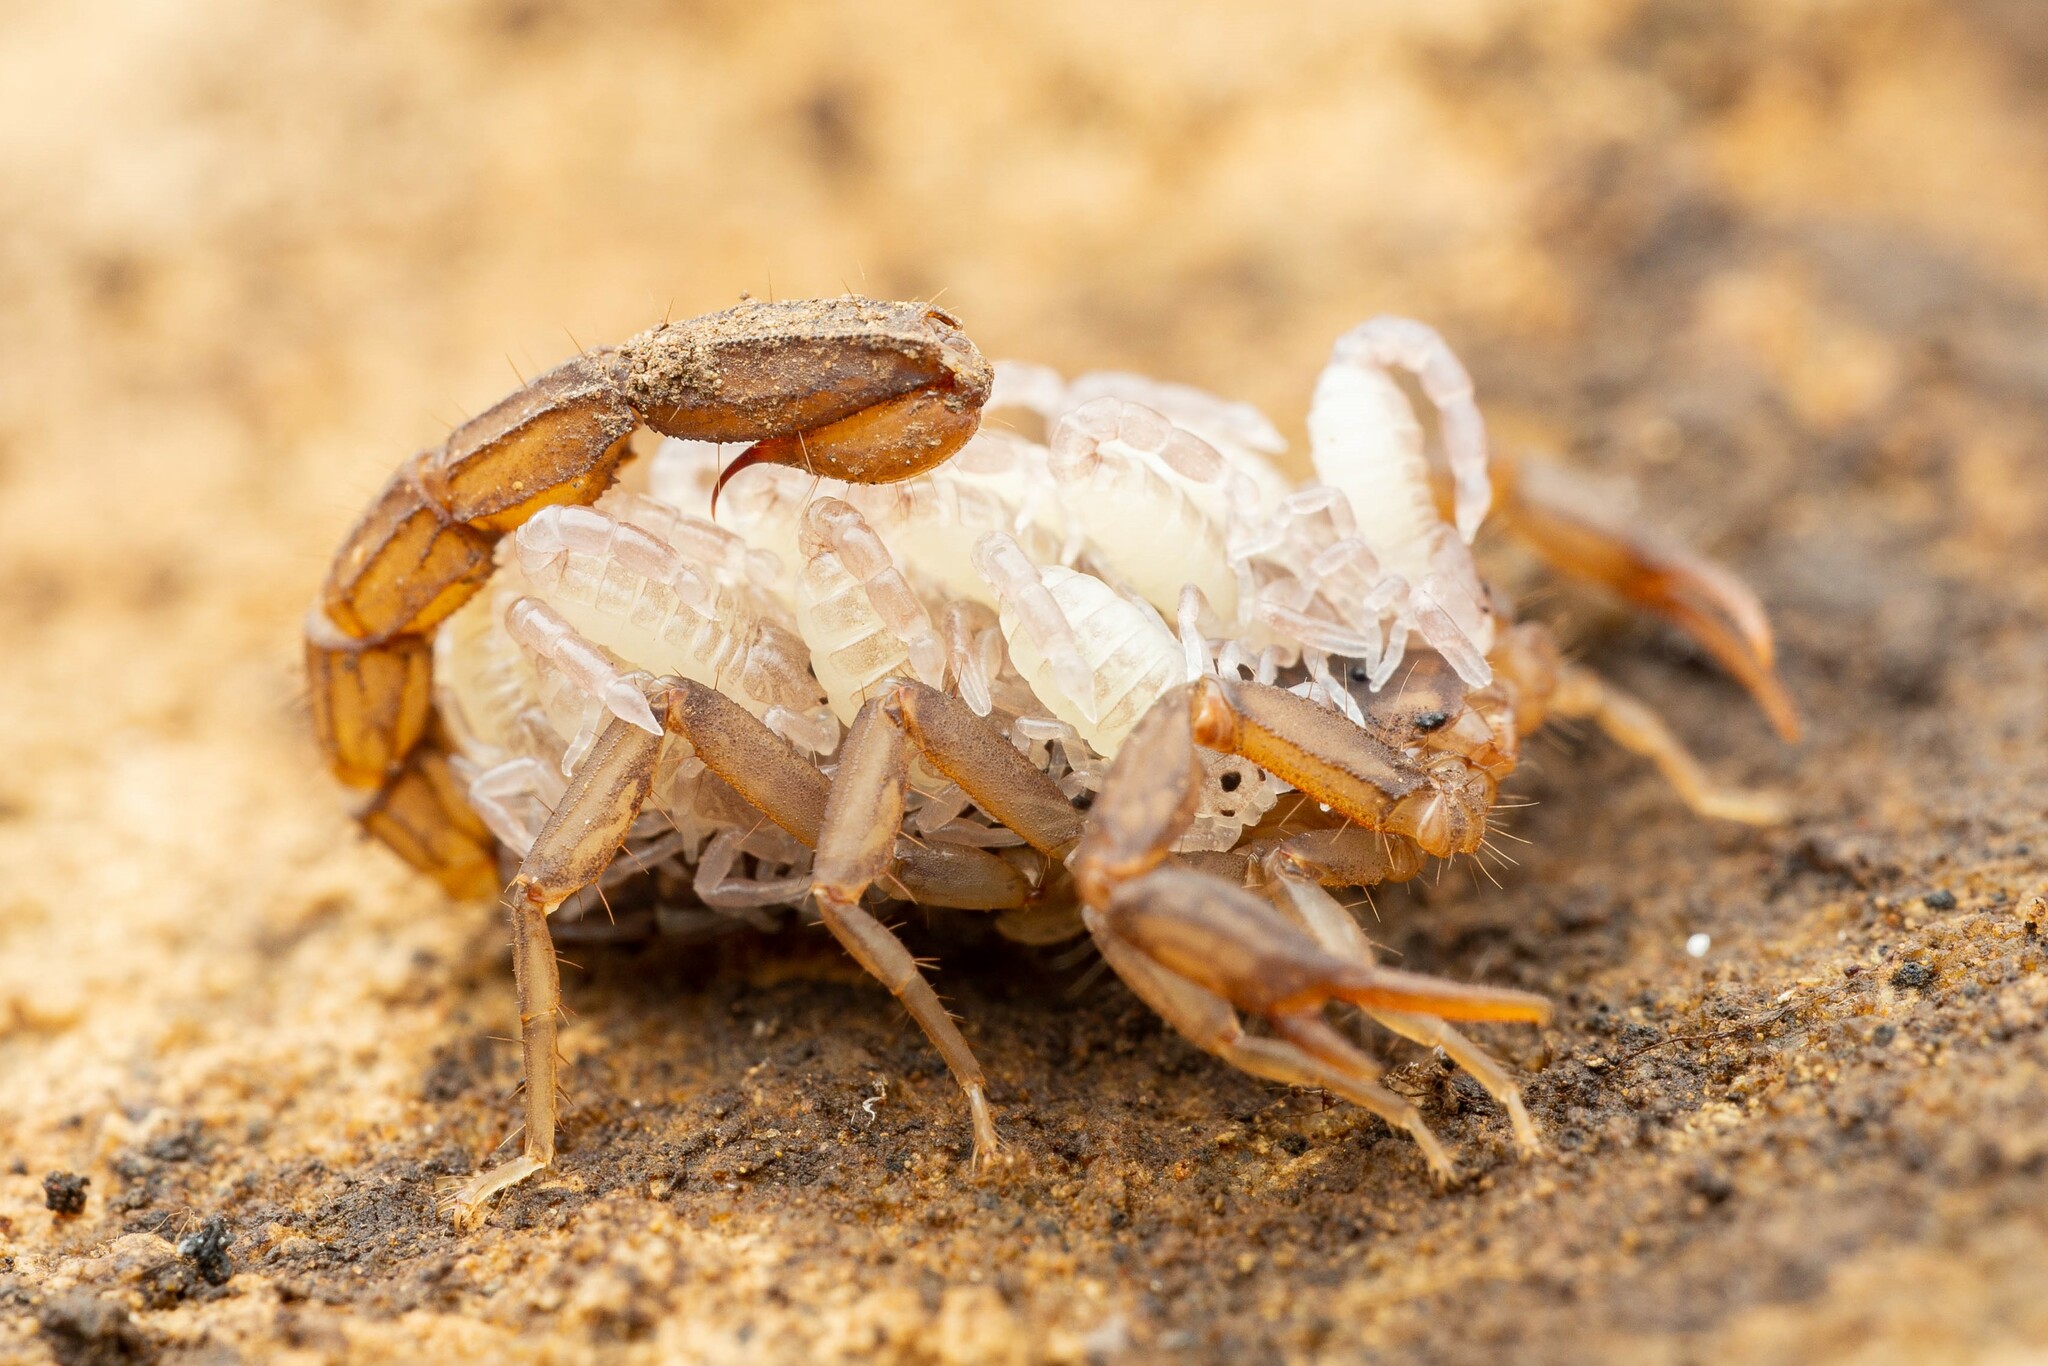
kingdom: Animalia
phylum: Arthropoda
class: Arachnida
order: Scorpiones
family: Vaejovidae
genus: Vaejovis
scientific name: Vaejovis cashi
